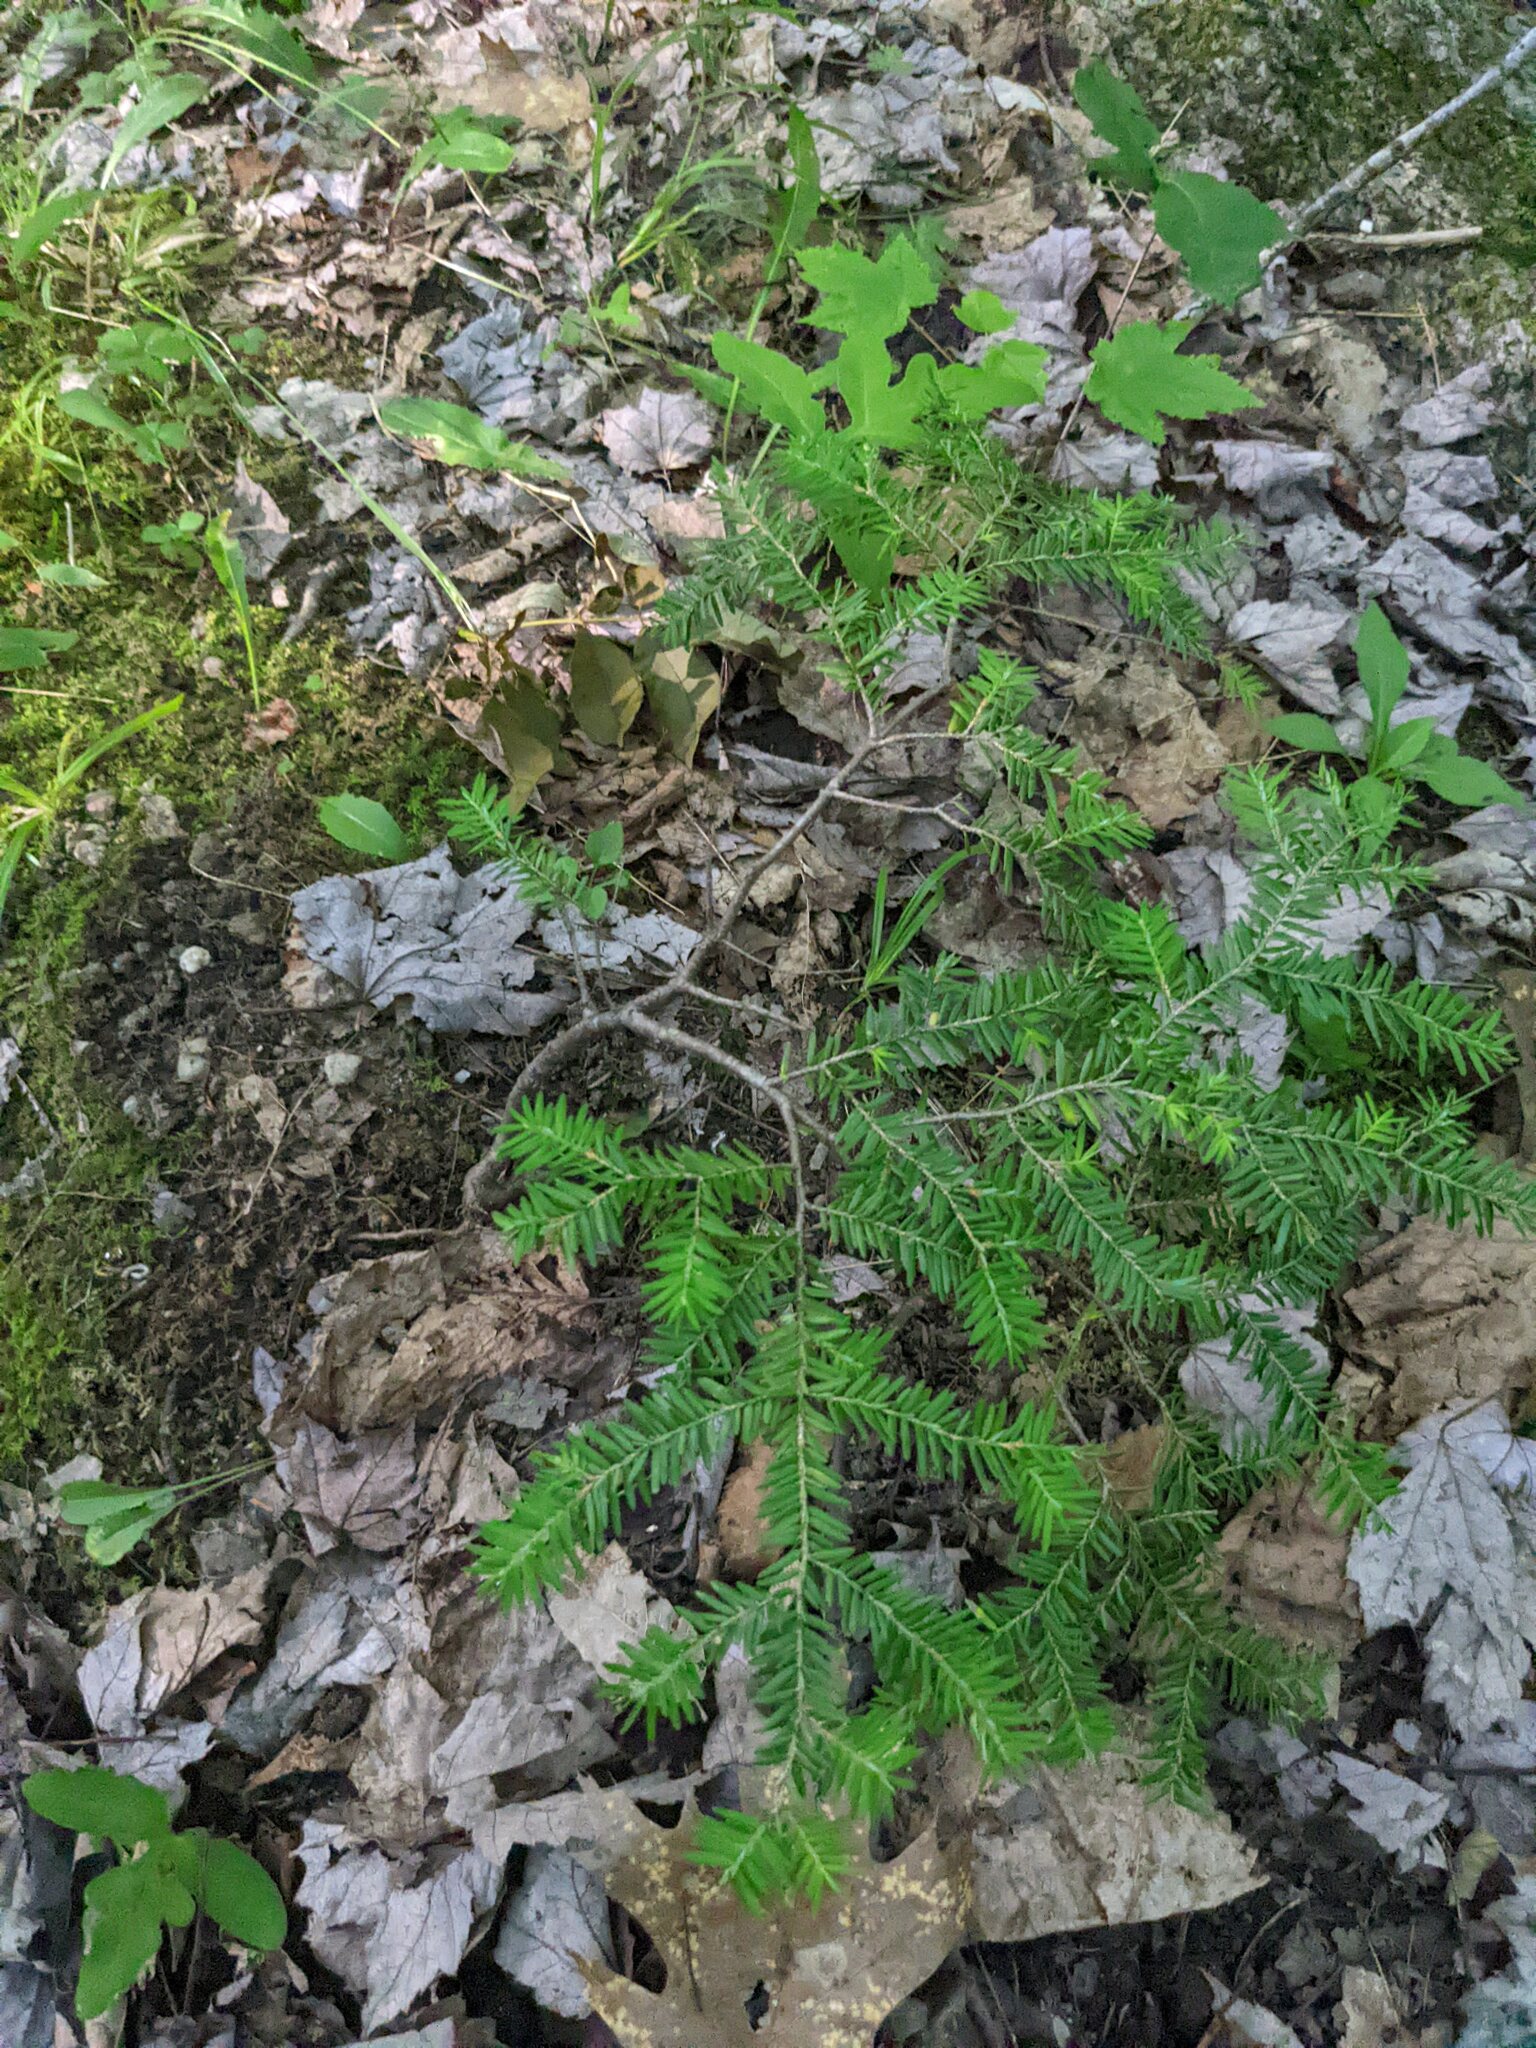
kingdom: Plantae
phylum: Tracheophyta
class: Pinopsida
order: Pinales
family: Pinaceae
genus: Tsuga
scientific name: Tsuga canadensis
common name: Eastern hemlock
